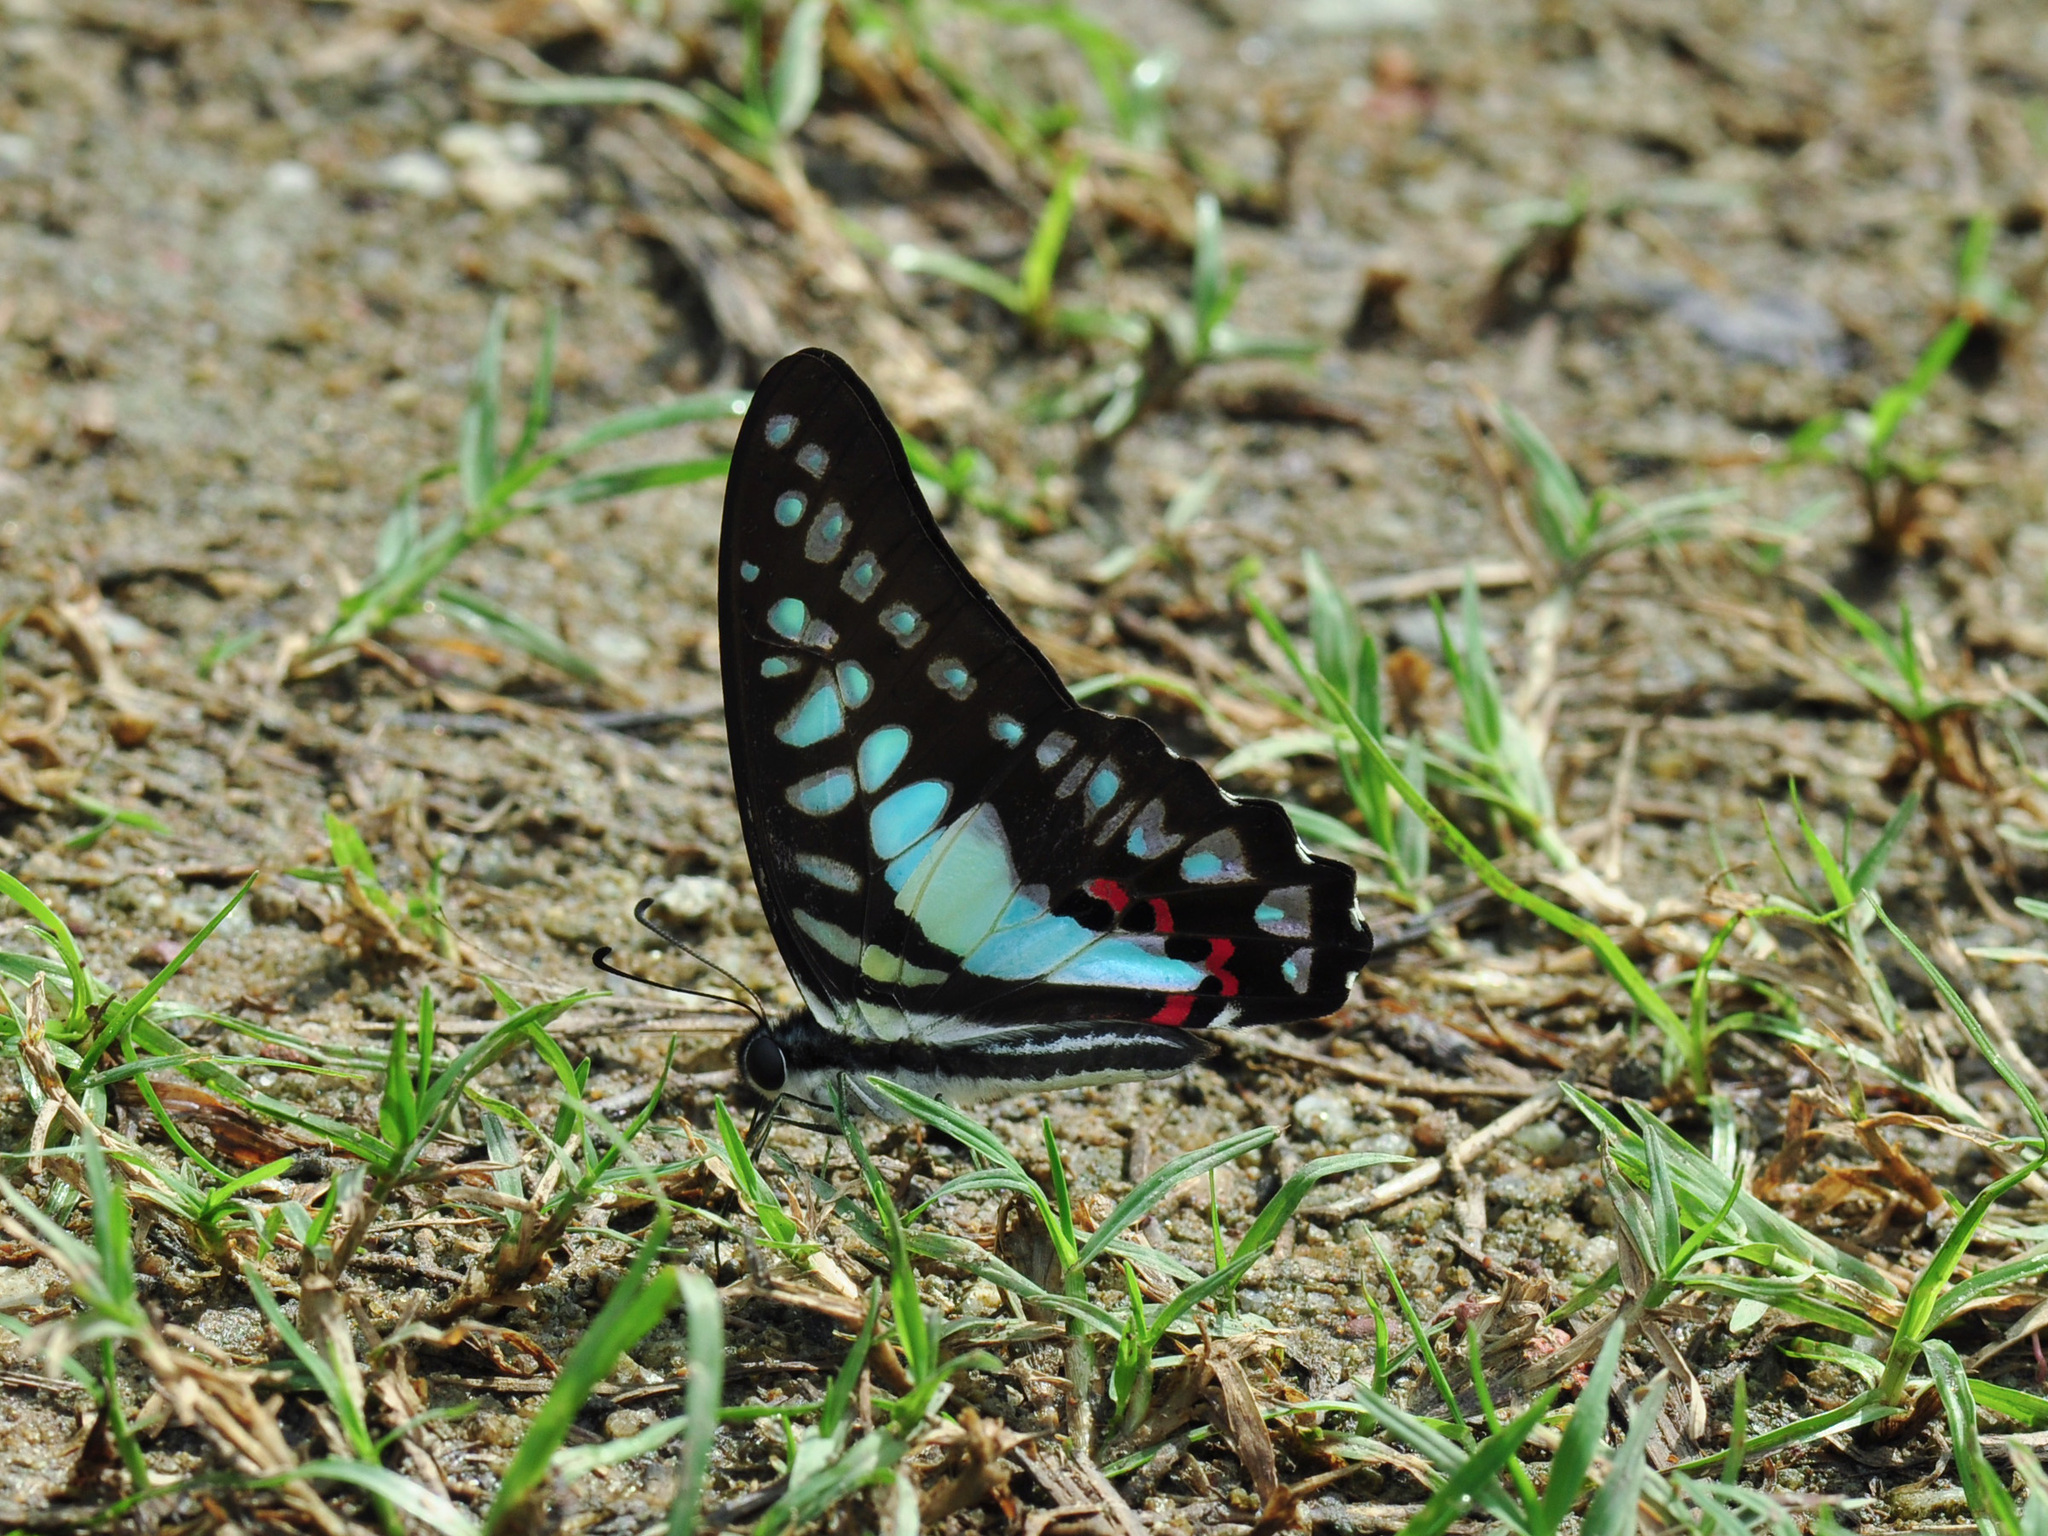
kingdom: Animalia
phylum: Arthropoda
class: Insecta
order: Lepidoptera
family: Papilionidae
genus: Graphium
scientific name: Graphium evemon
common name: Lesser jay
